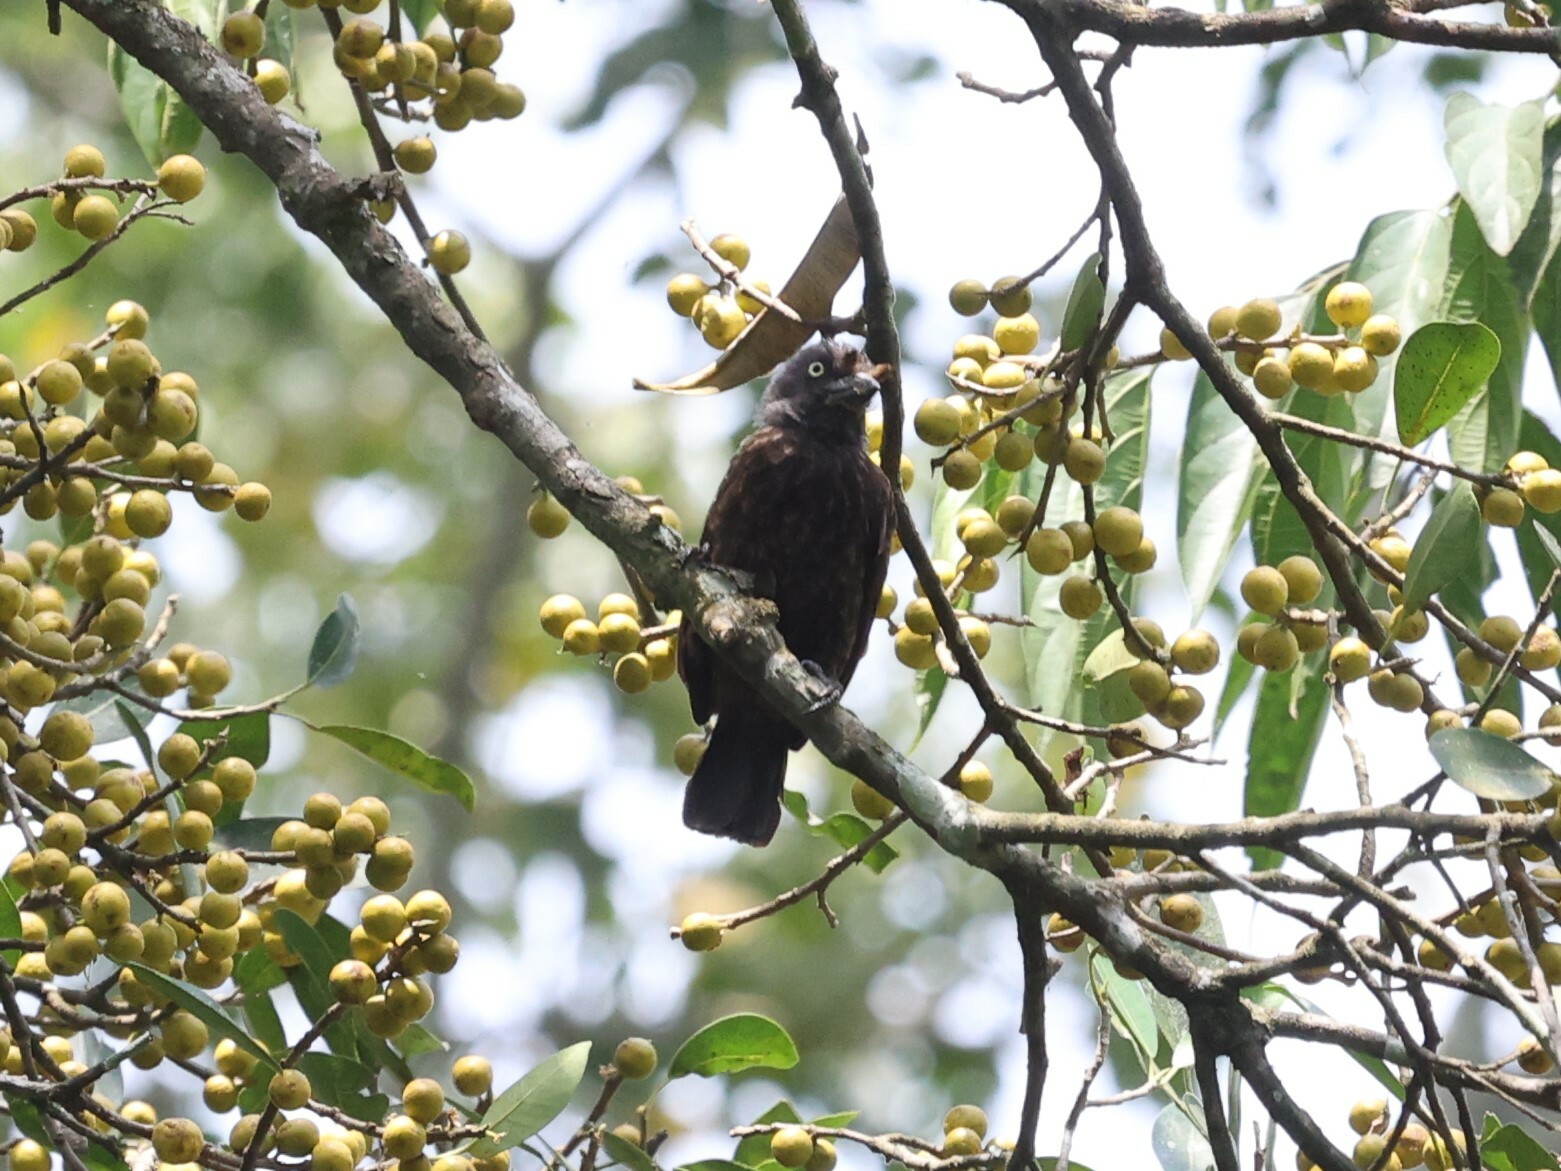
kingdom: Animalia
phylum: Chordata
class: Aves
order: Piciformes
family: Lybiidae
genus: Gymnobucco
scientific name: Gymnobucco bonapartei
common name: Grey-throated barbet
